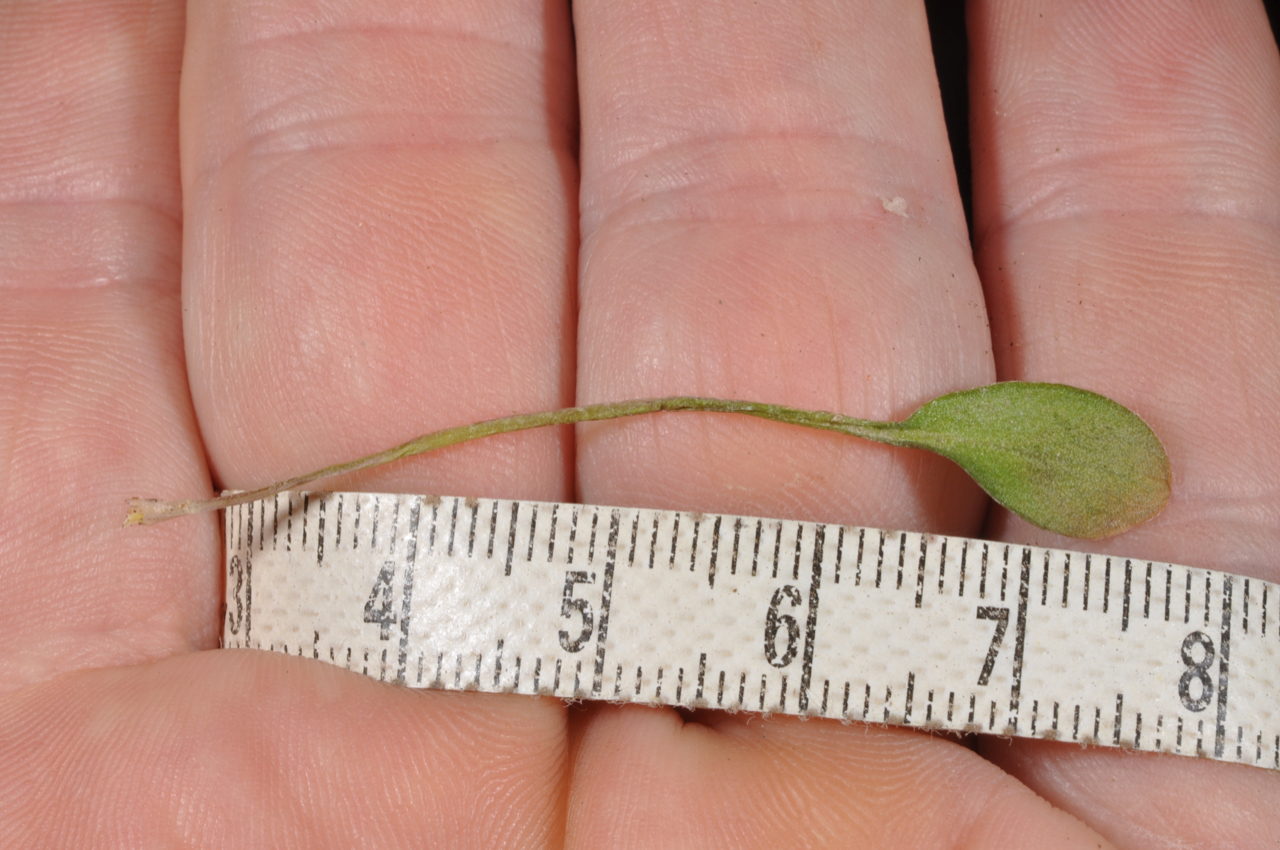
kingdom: Plantae
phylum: Tracheophyta
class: Magnoliopsida
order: Brassicales
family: Brassicaceae
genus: Cardamine
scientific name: Cardamine dimidia
